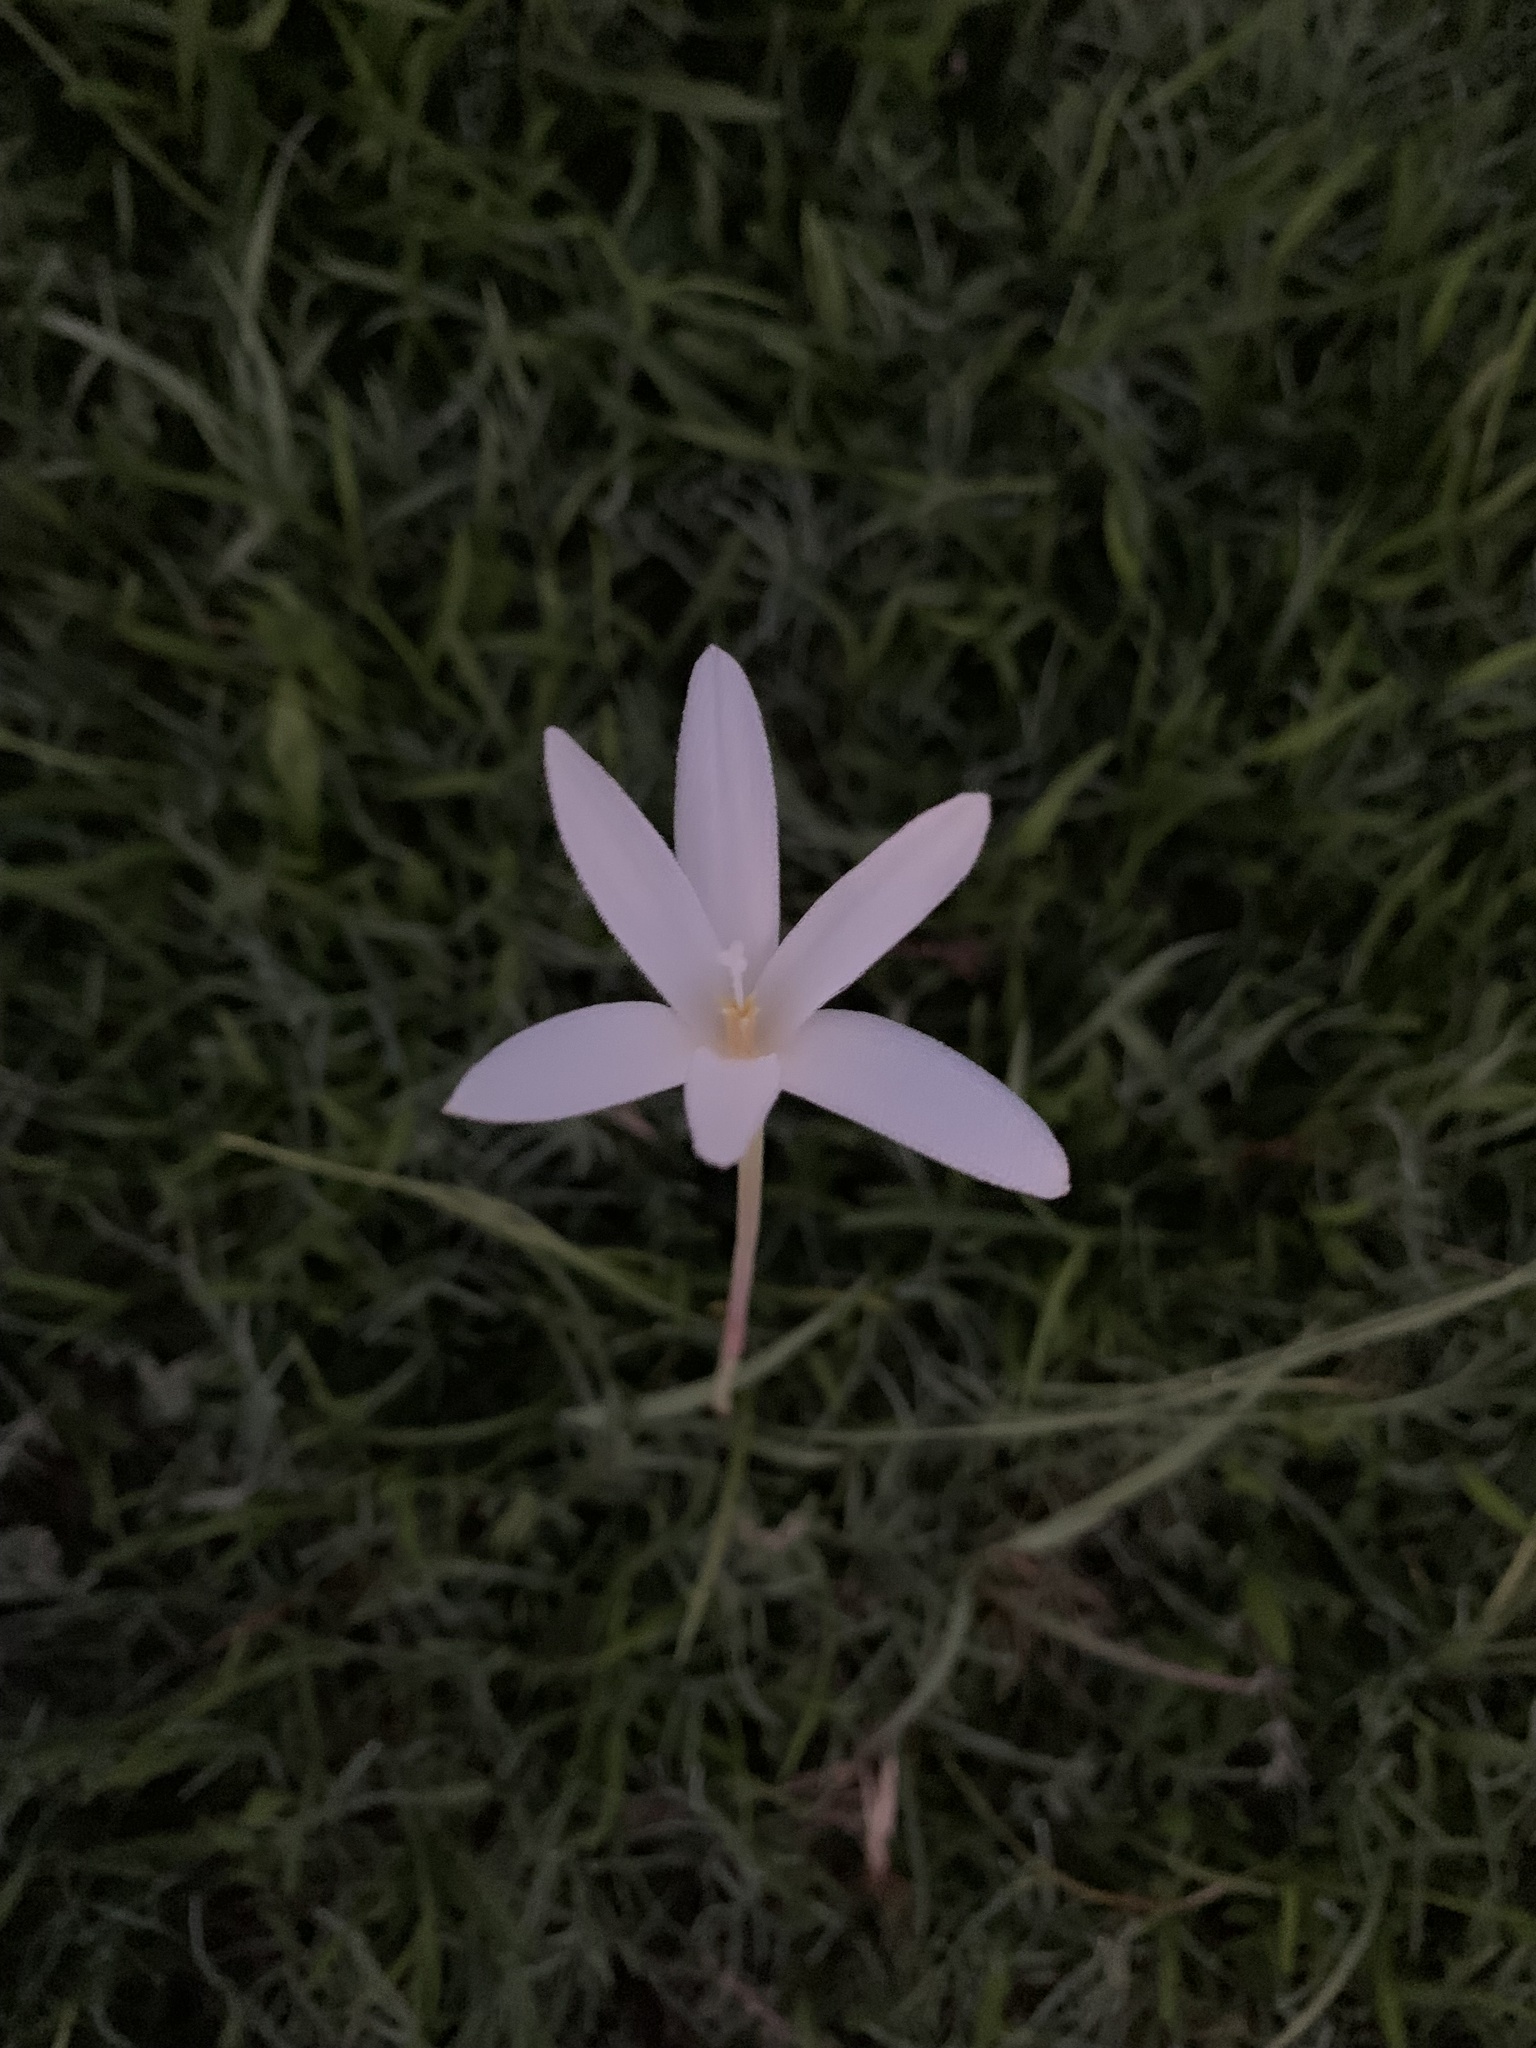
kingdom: Plantae
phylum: Tracheophyta
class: Liliopsida
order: Asparagales
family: Amaryllidaceae
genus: Zephyranthes
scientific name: Zephyranthes traubii
